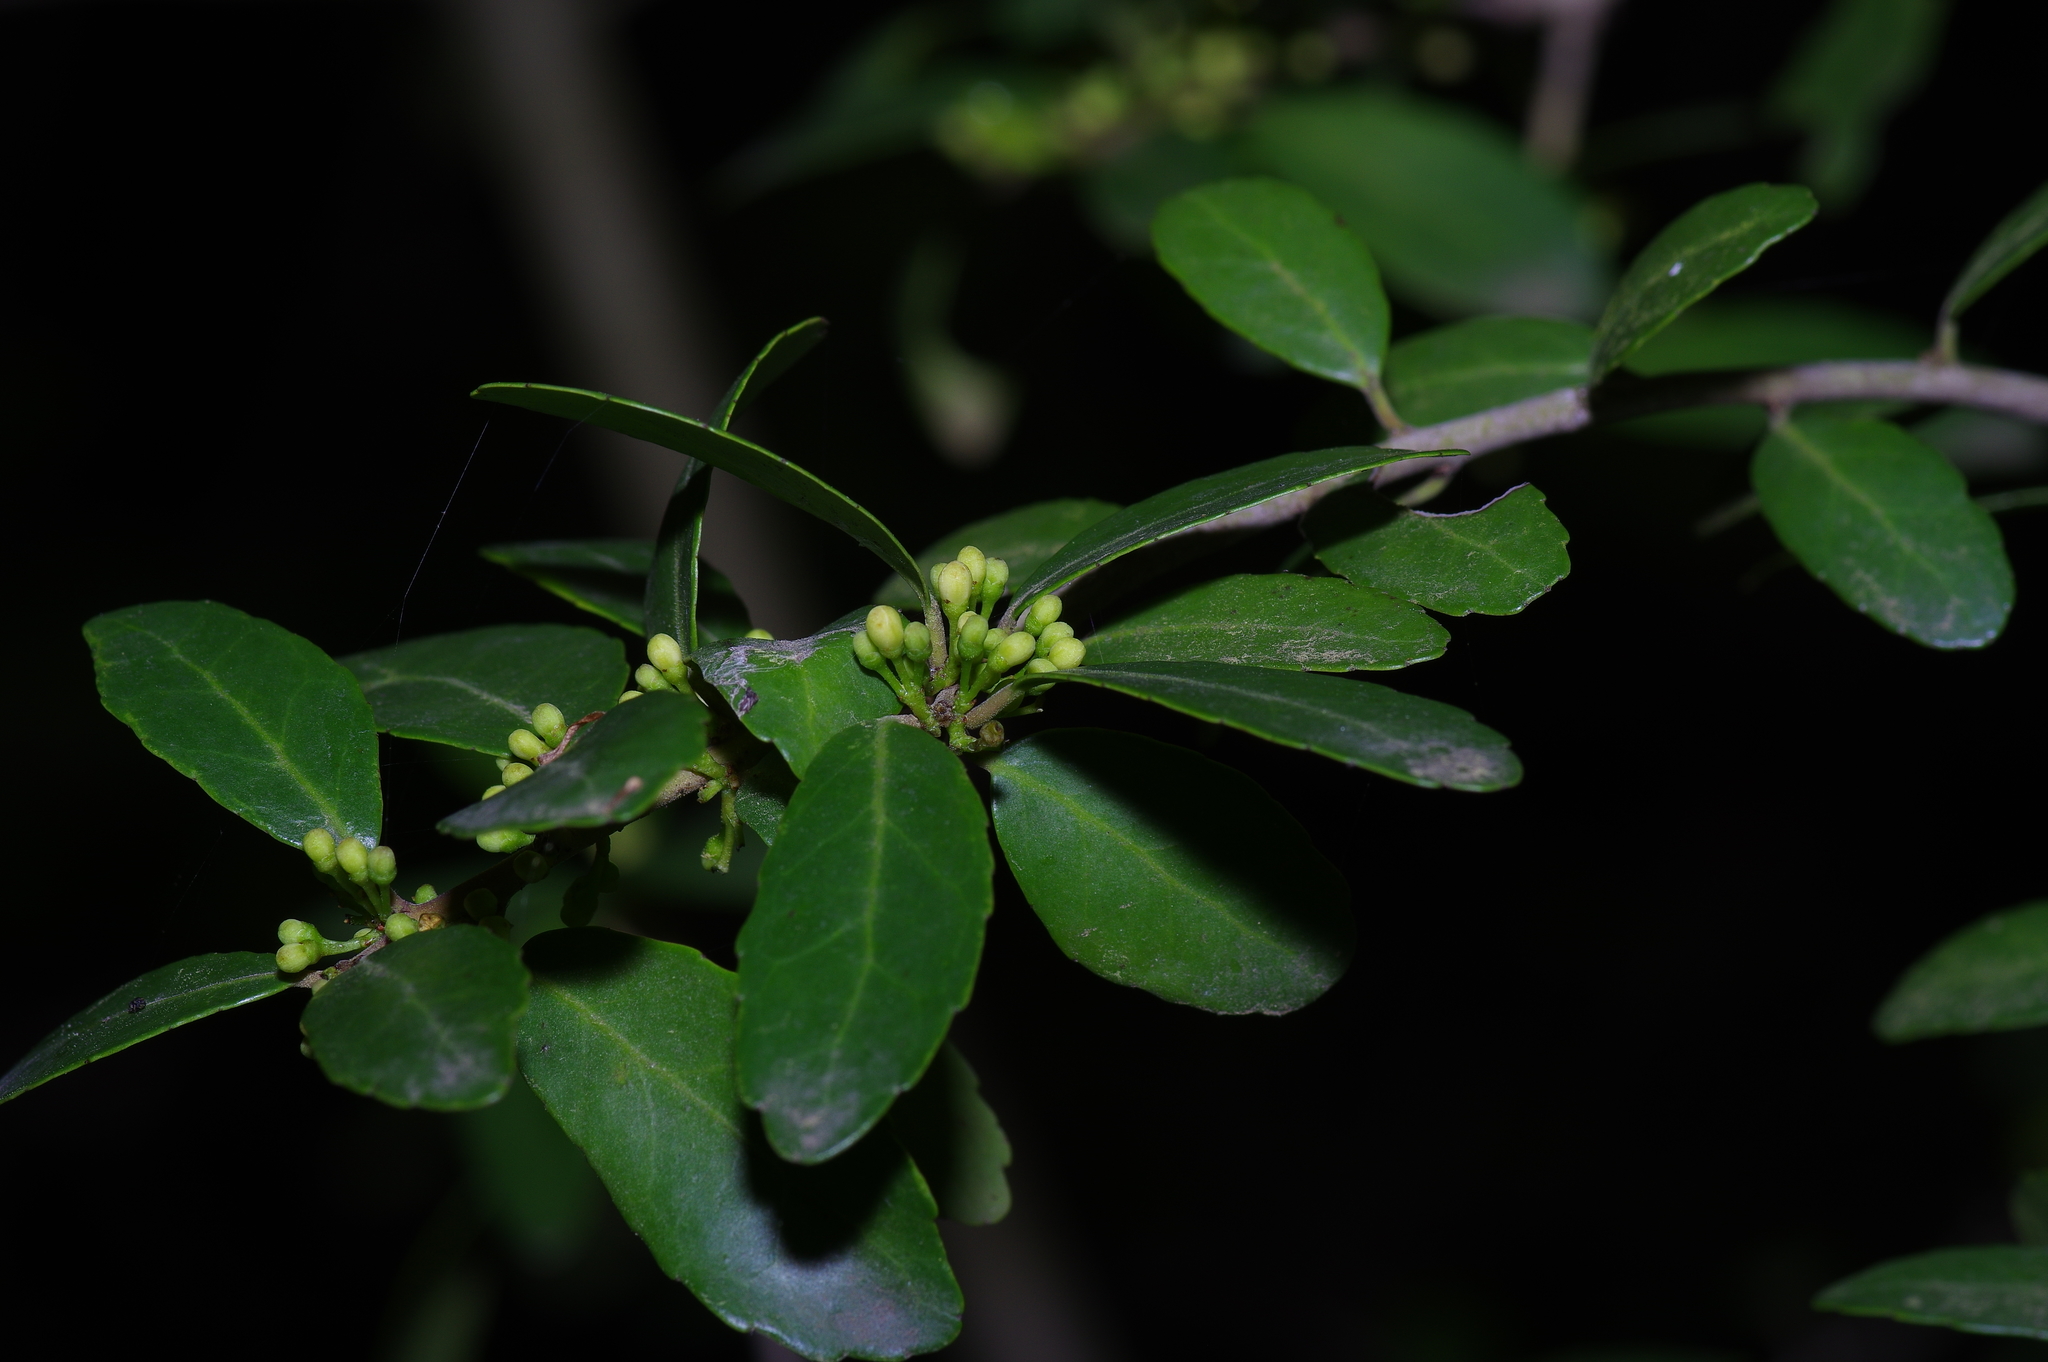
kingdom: Plantae
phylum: Tracheophyta
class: Magnoliopsida
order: Aquifoliales
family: Aquifoliaceae
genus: Ilex
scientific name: Ilex vomitoria
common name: Yaupon holly
